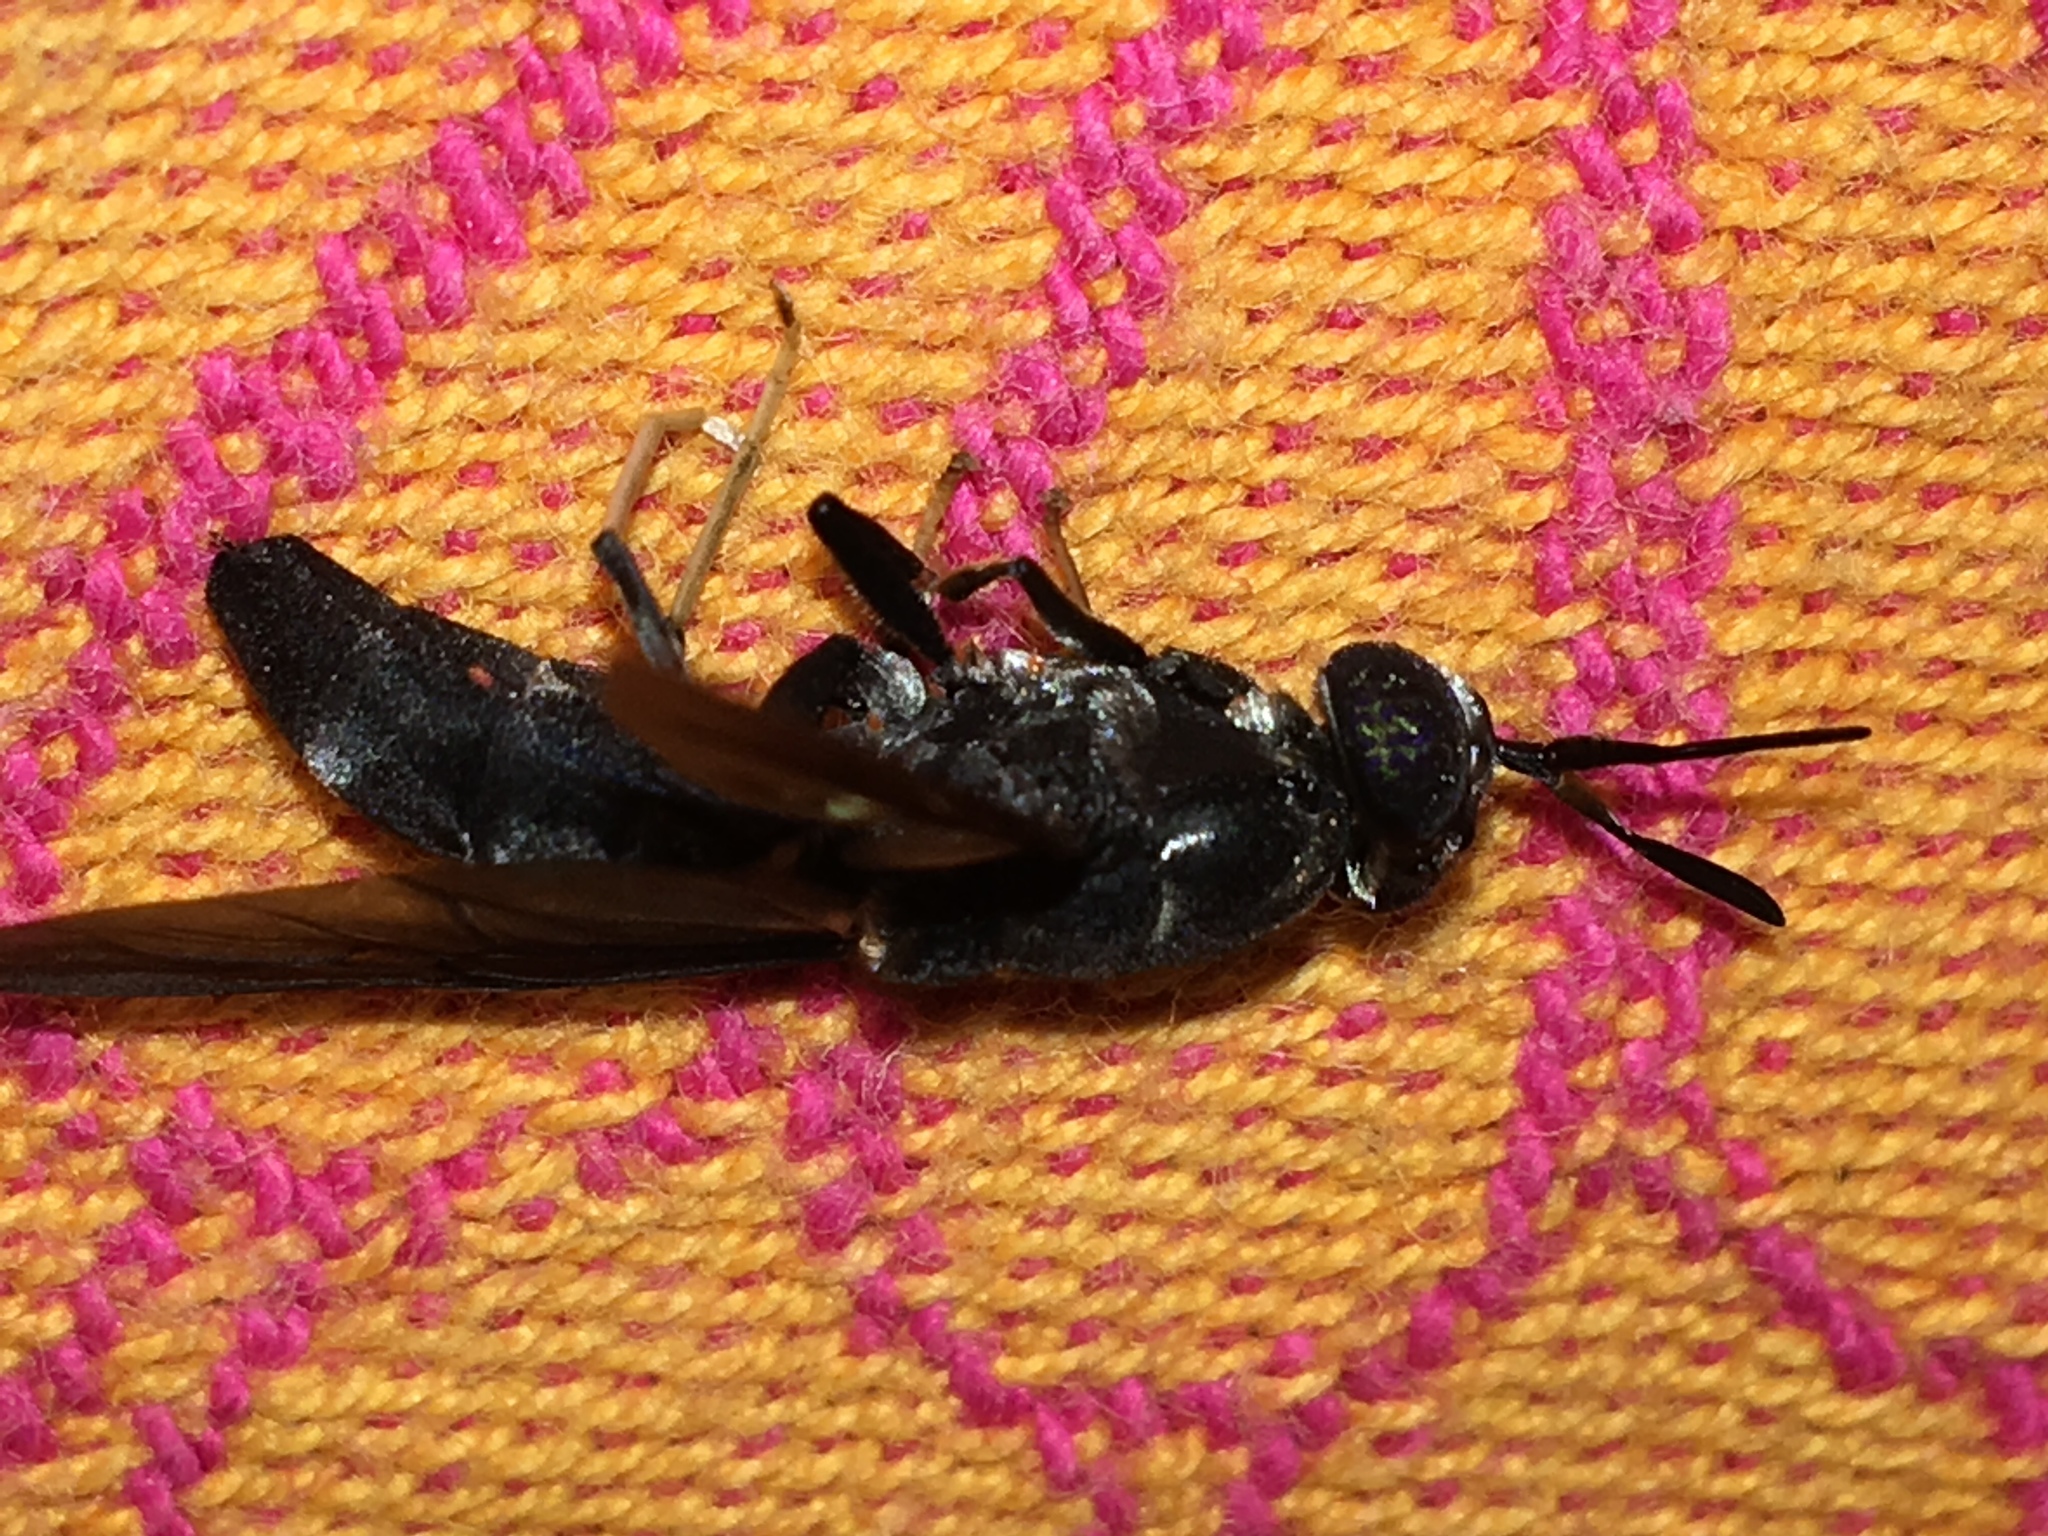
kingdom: Animalia
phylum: Arthropoda
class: Insecta
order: Diptera
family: Stratiomyidae
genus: Hermetia
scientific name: Hermetia illucens
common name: Black soldier fly
